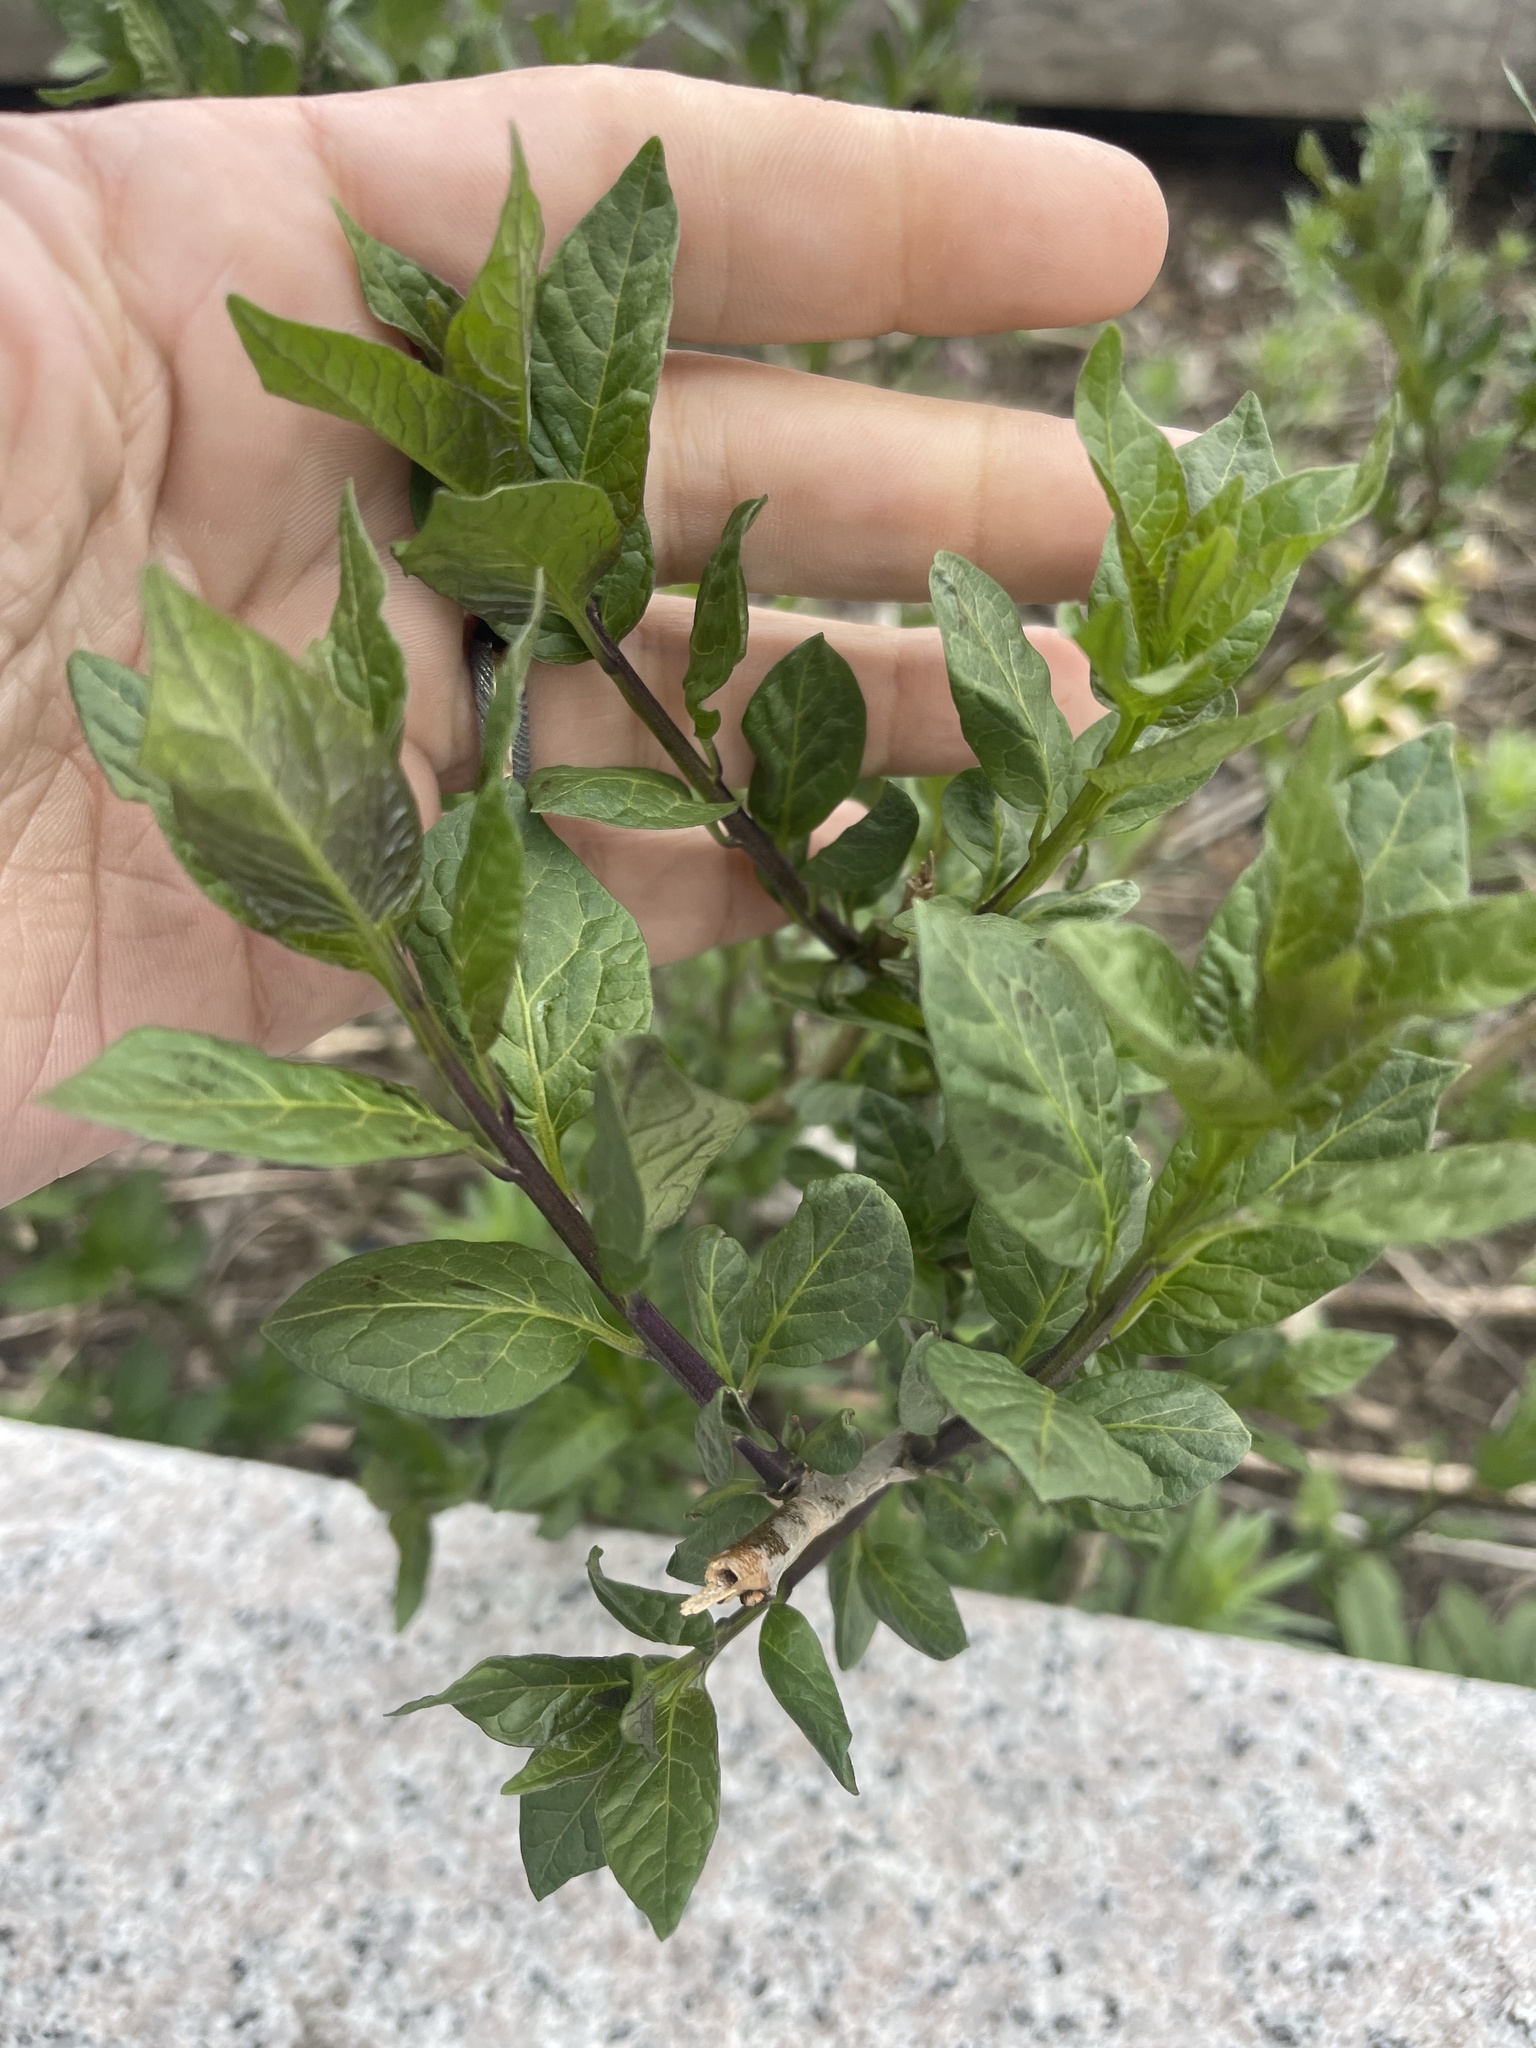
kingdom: Plantae
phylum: Tracheophyta
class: Magnoliopsida
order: Solanales
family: Solanaceae
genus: Solanum
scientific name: Solanum dulcamara
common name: Climbing nightshade
